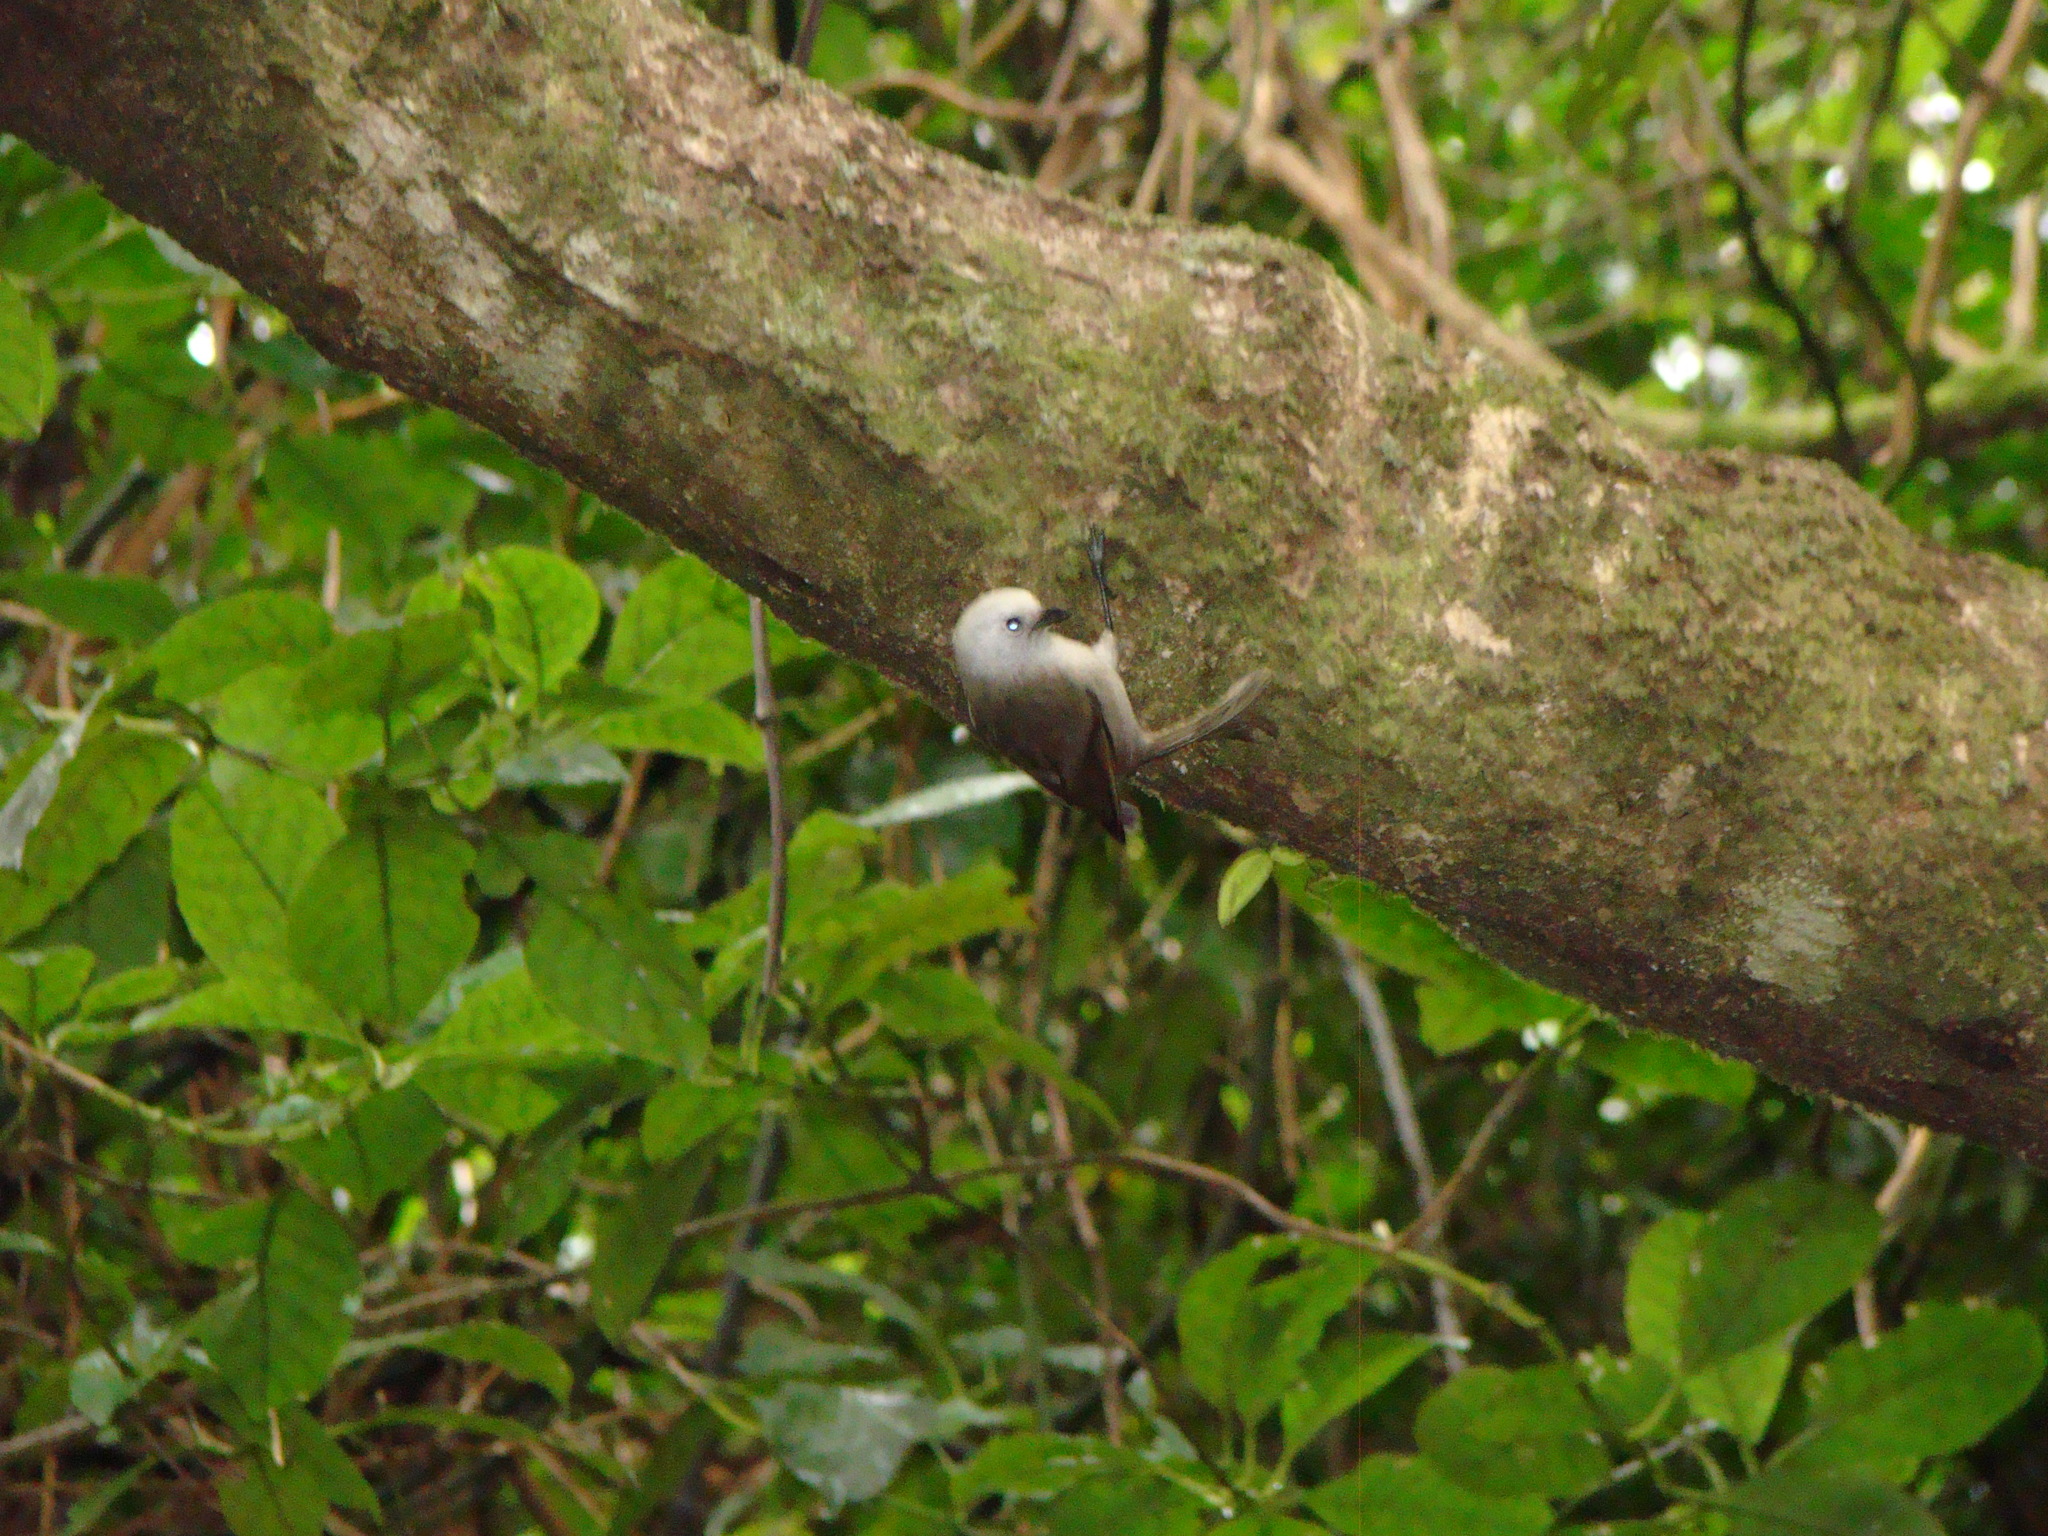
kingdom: Animalia
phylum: Chordata
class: Aves
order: Passeriformes
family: Acanthizidae
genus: Mohoua
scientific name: Mohoua albicilla
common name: Whitehead
